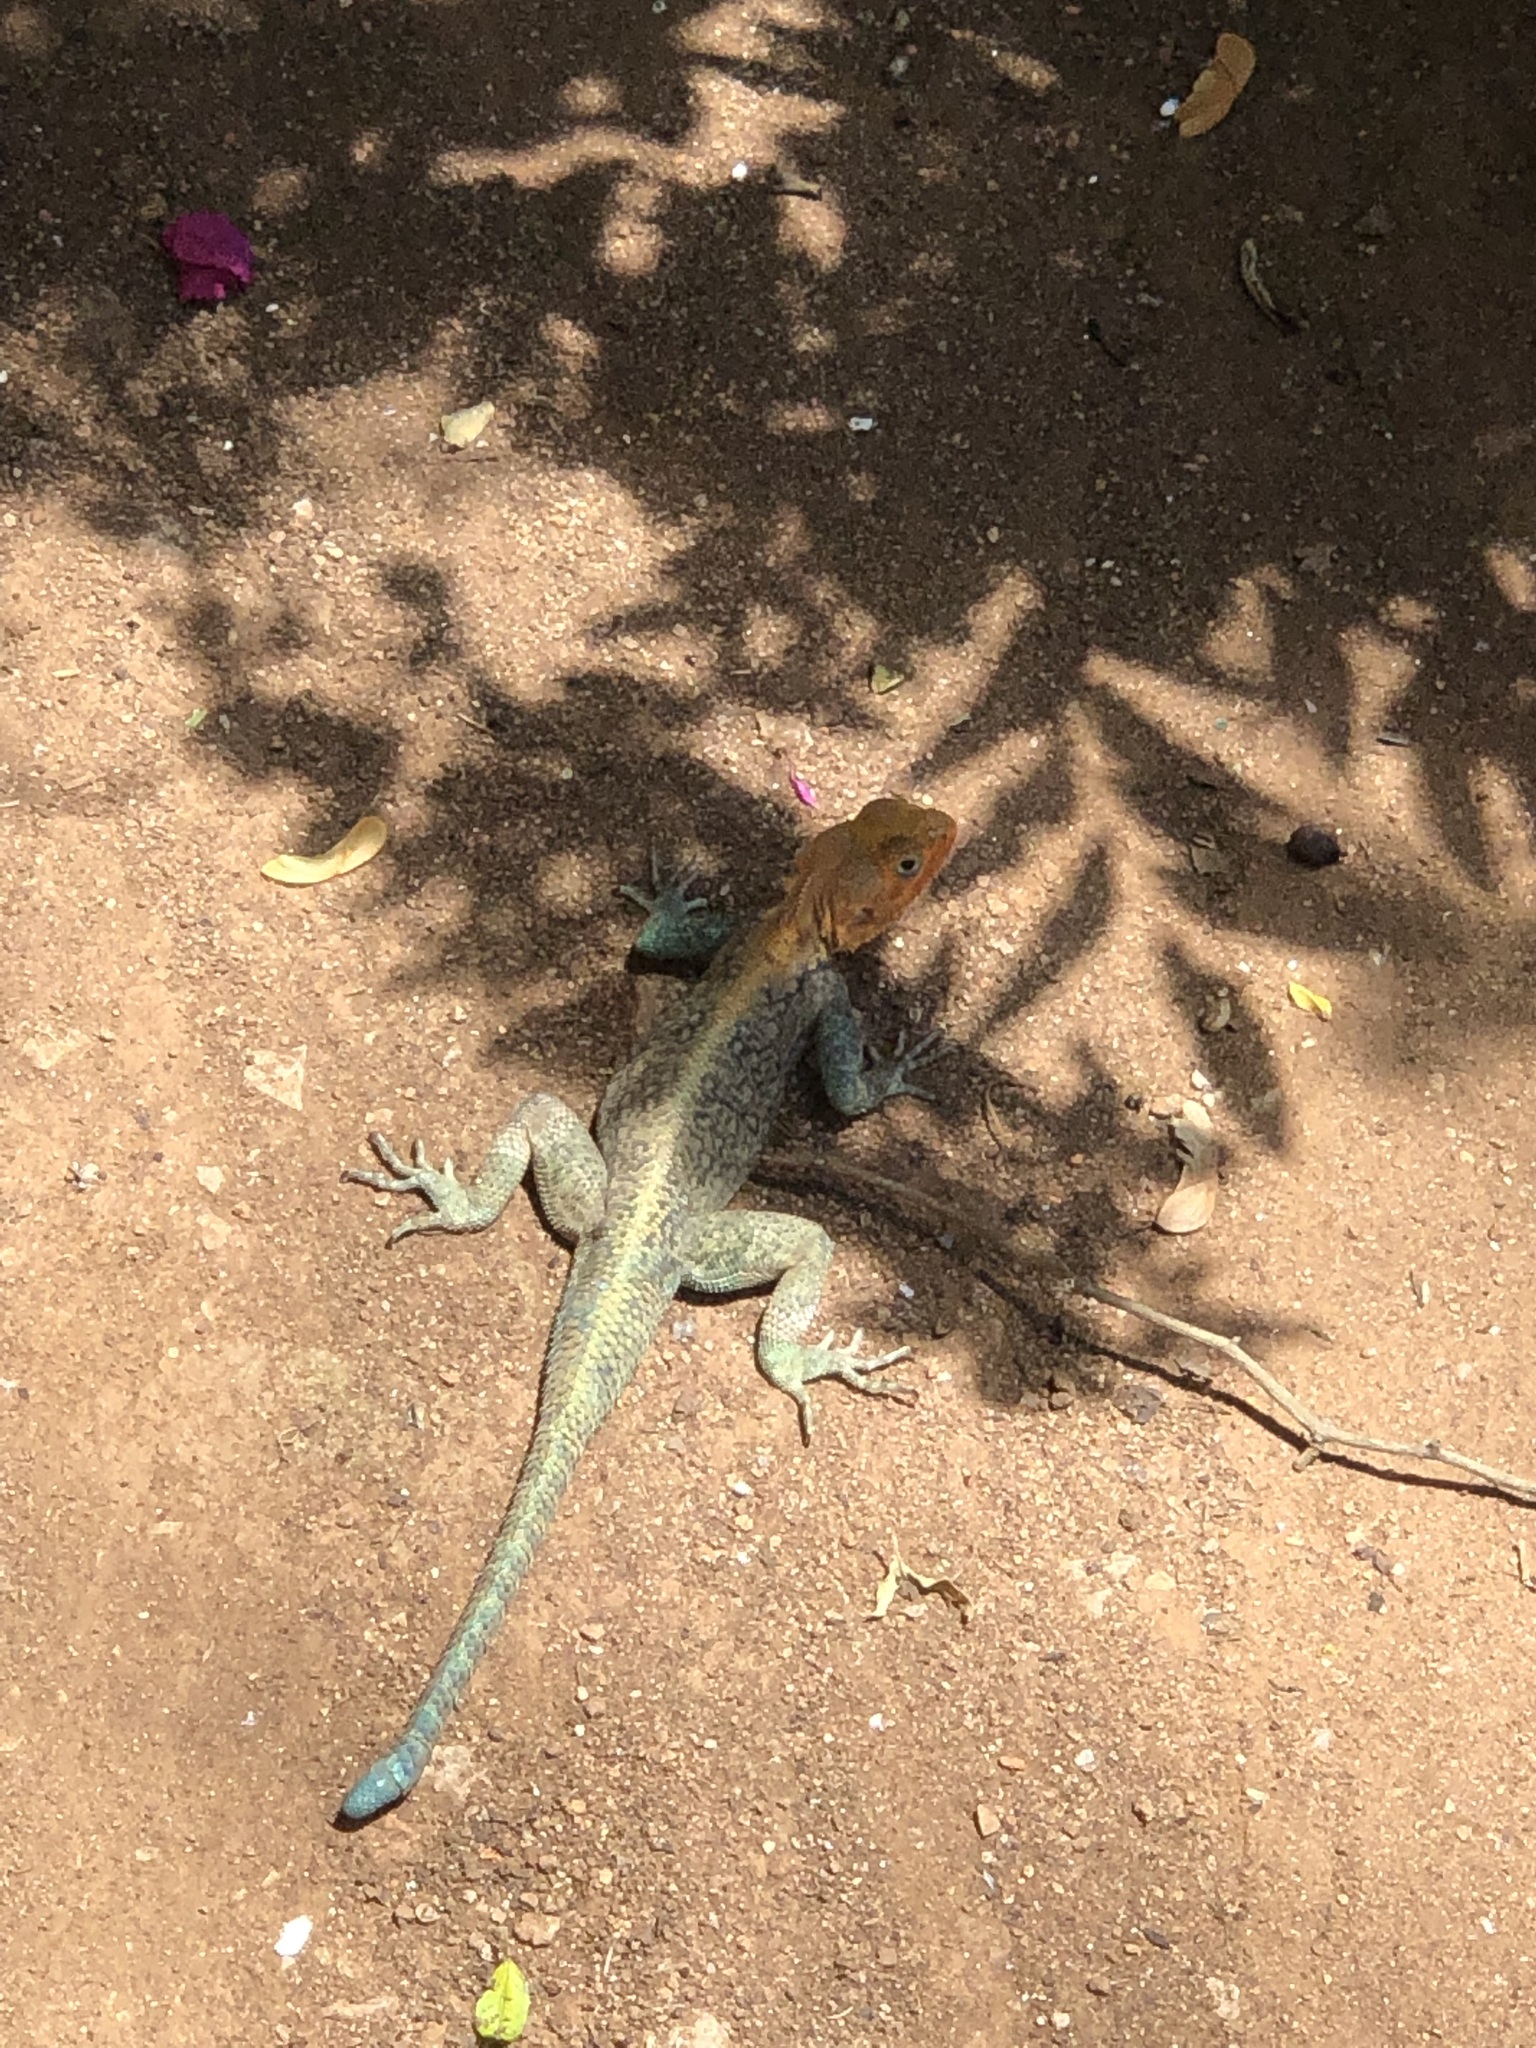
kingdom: Animalia
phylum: Chordata
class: Squamata
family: Agamidae
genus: Agama
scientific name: Agama lionotus
